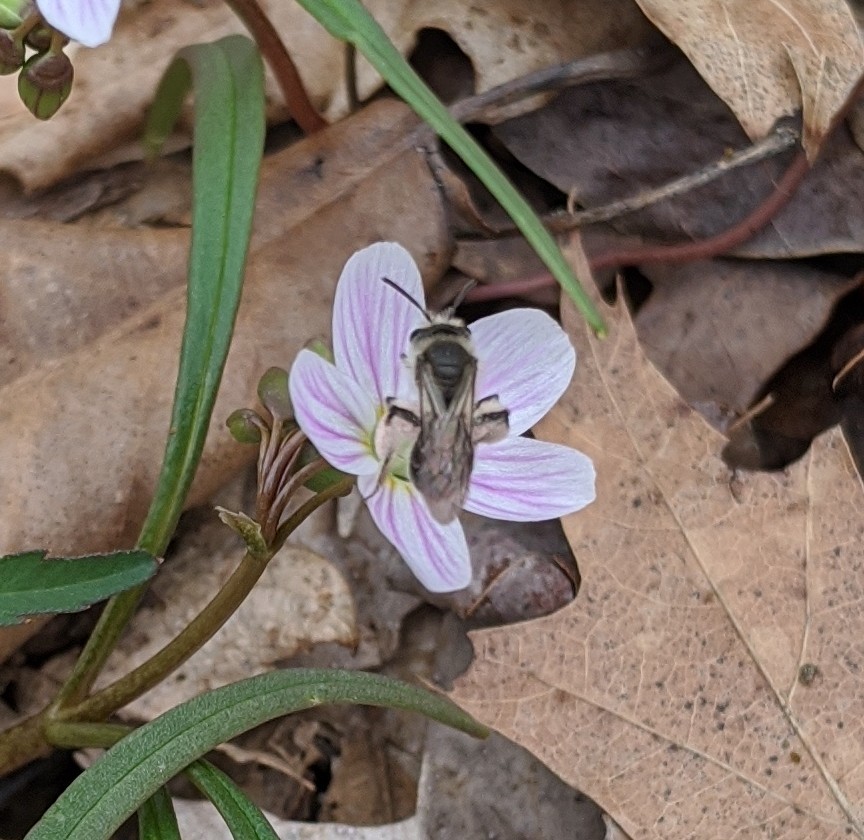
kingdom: Animalia
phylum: Arthropoda
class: Insecta
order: Hymenoptera
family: Andrenidae
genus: Andrena
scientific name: Andrena erigeniae
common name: Spring beauty miner
